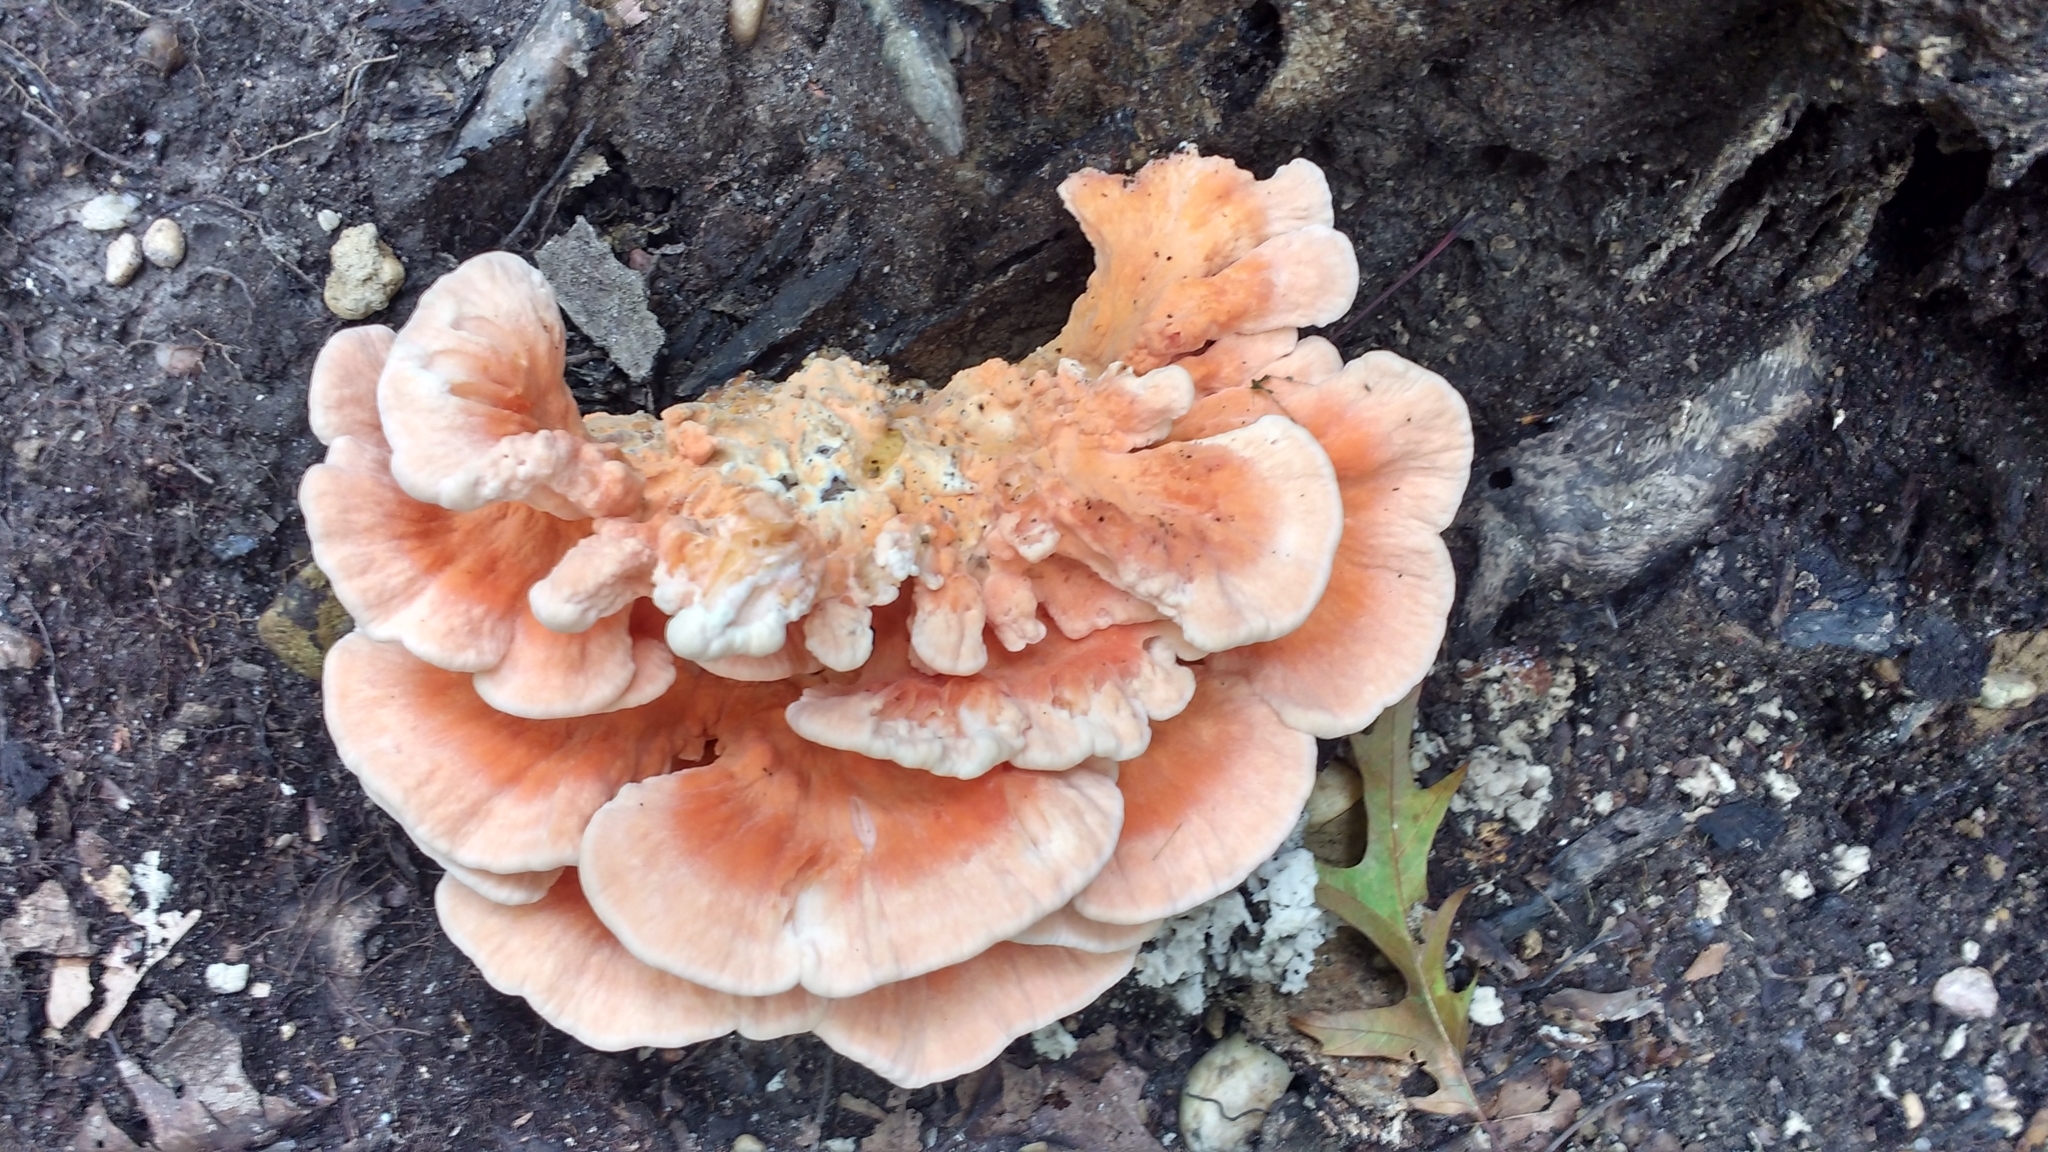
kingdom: Fungi
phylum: Basidiomycota
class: Agaricomycetes
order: Polyporales
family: Laetiporaceae
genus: Laetiporus
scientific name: Laetiporus sulphureus
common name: Chicken of the woods
